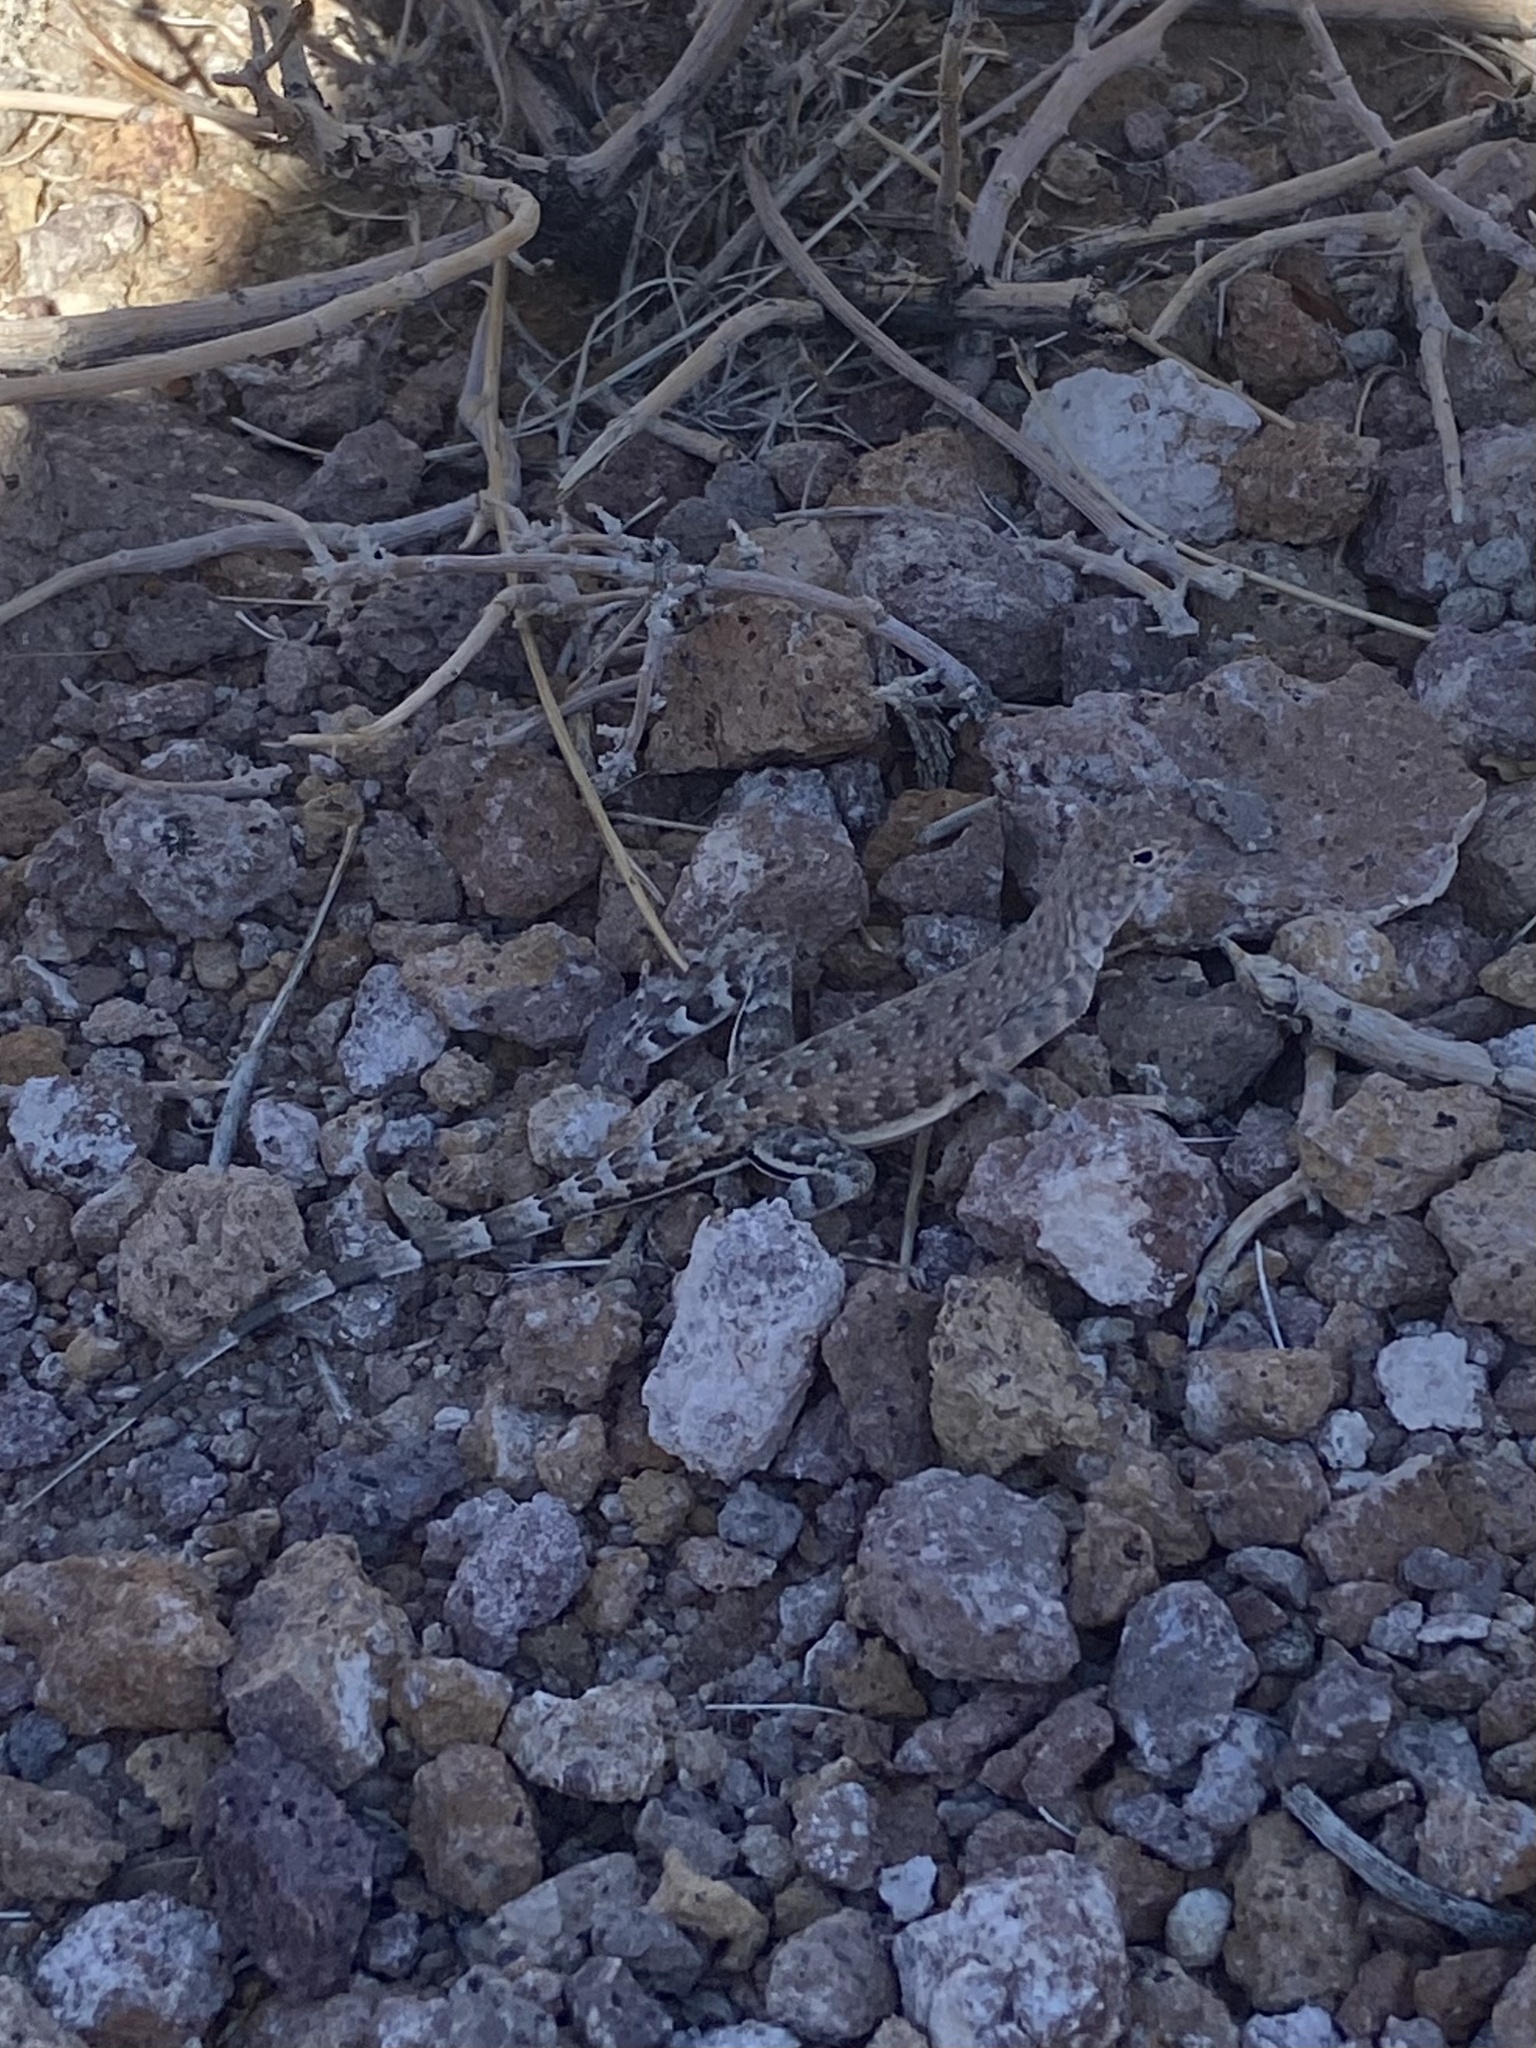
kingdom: Animalia
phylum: Chordata
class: Squamata
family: Phrynosomatidae
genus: Callisaurus
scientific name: Callisaurus draconoides
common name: Zebra-tailed lizard
